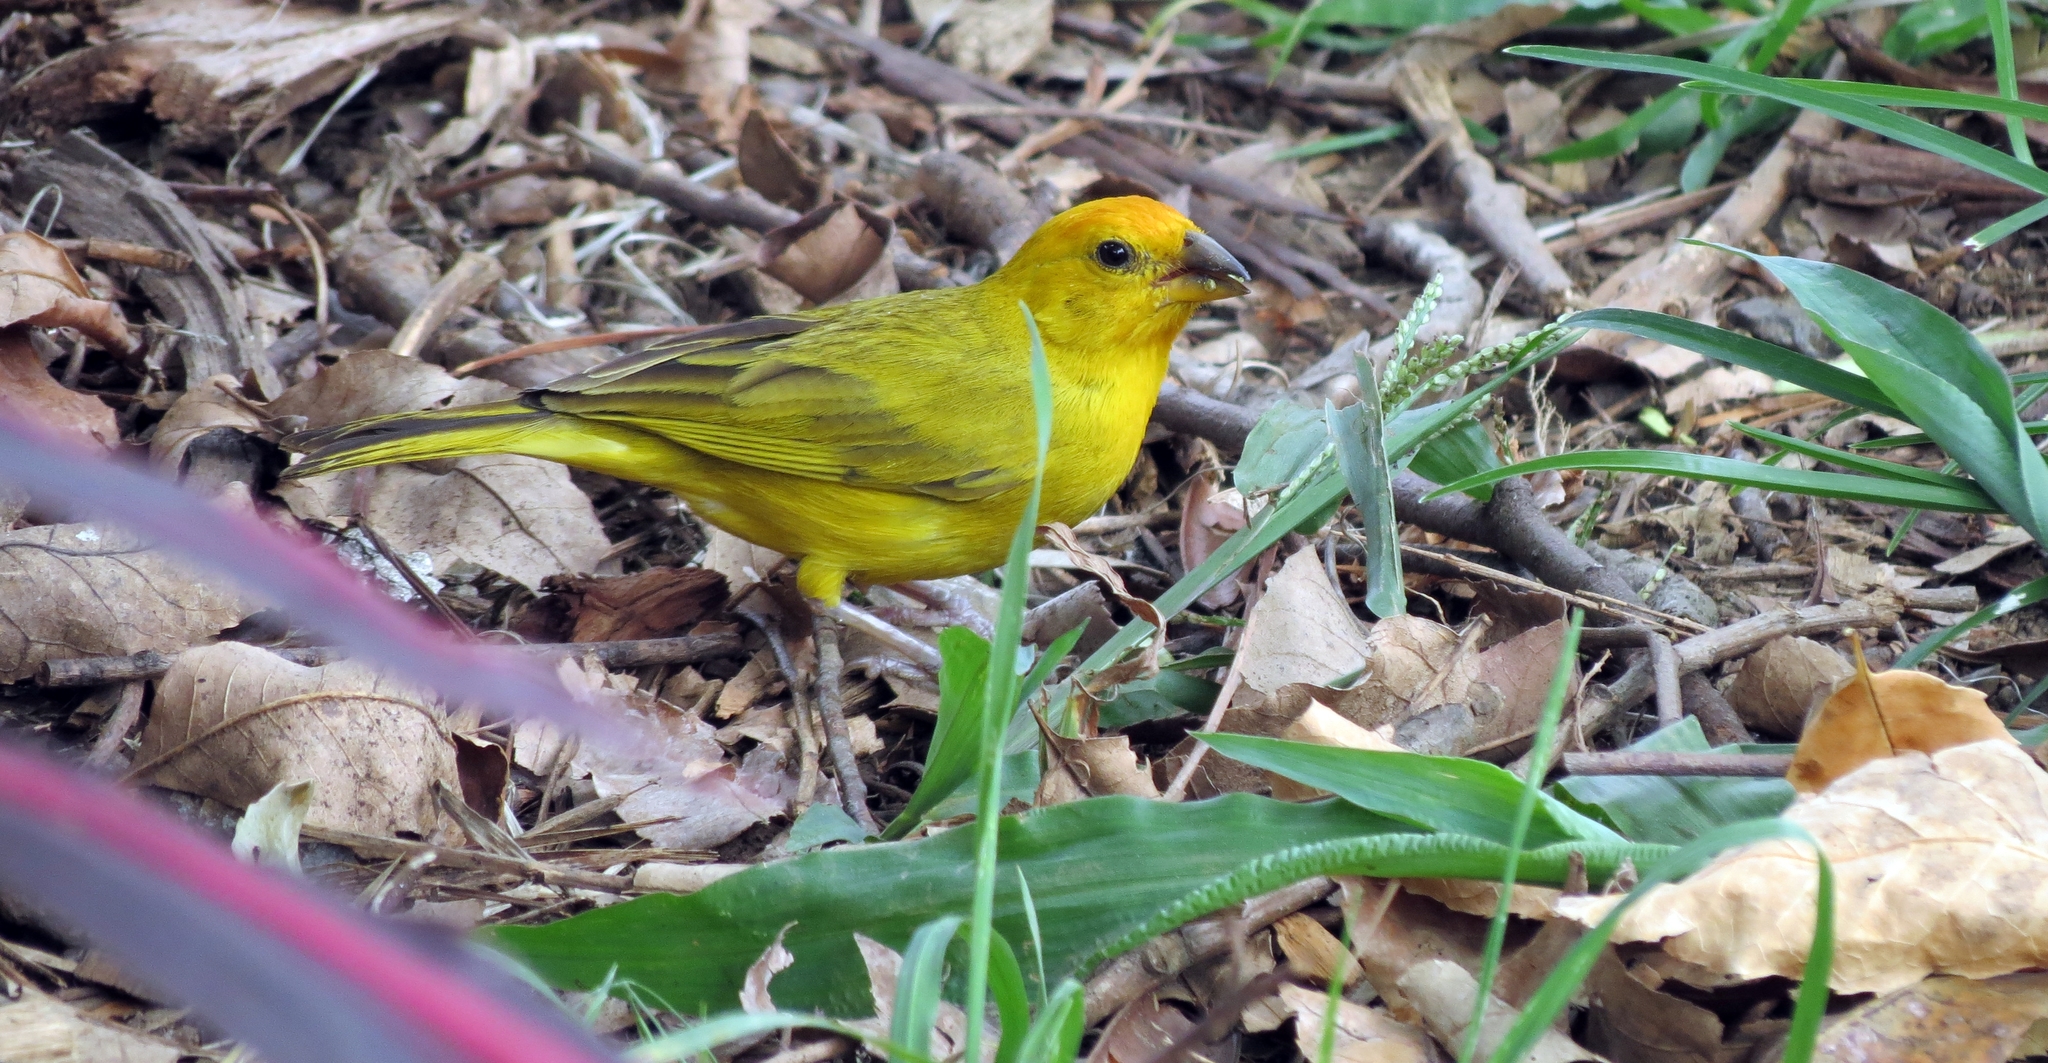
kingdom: Animalia
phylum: Chordata
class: Aves
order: Passeriformes
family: Thraupidae
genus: Sicalis
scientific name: Sicalis flaveola
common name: Saffron finch
